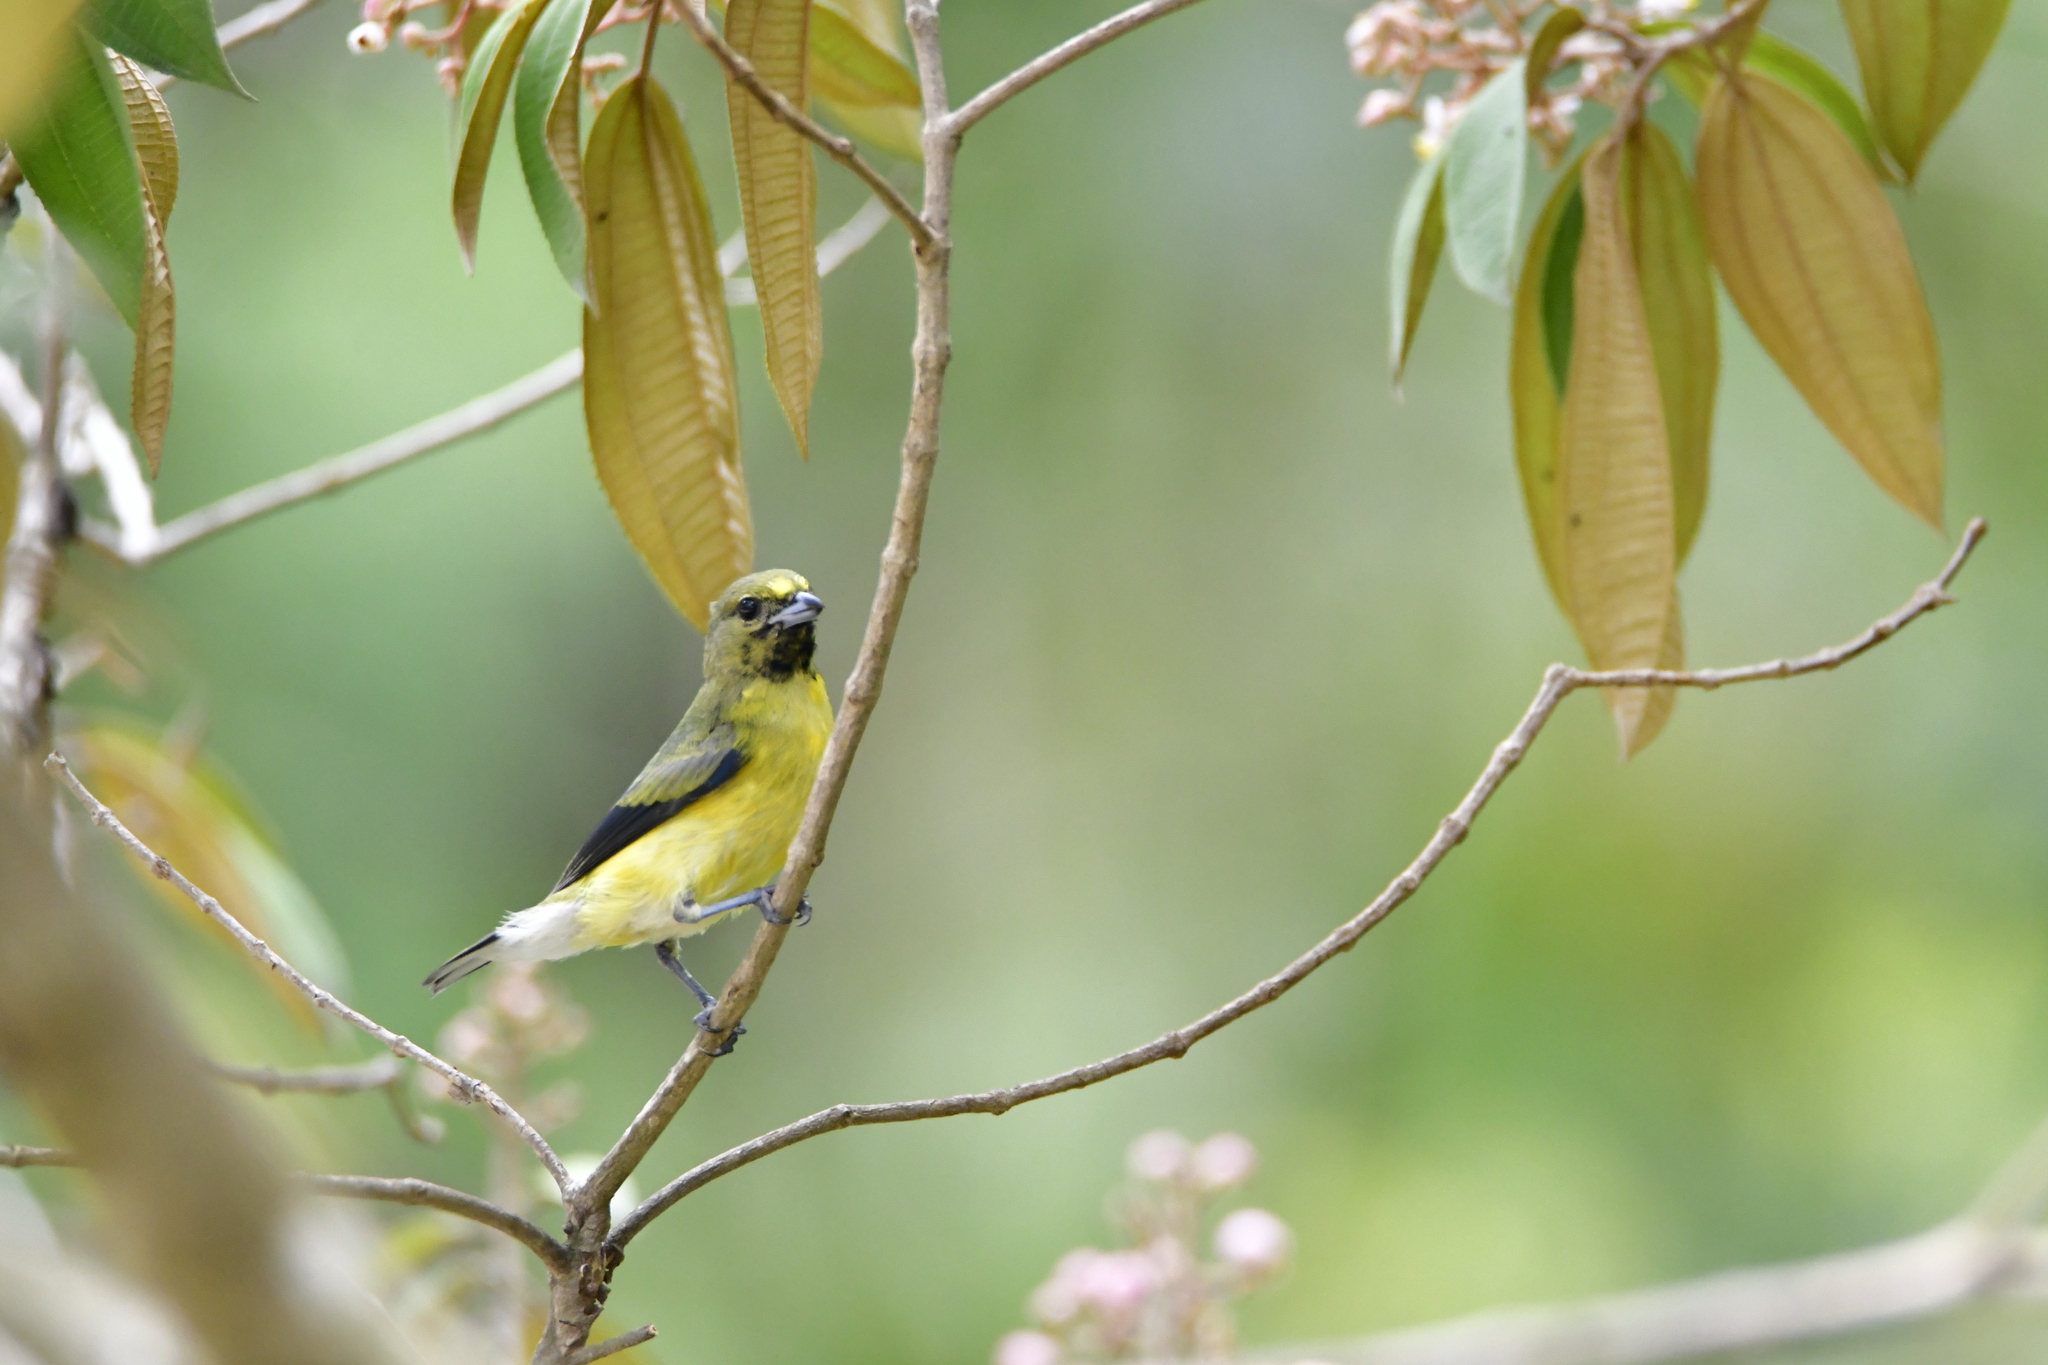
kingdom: Animalia
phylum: Chordata
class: Aves
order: Passeriformes
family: Fringillidae
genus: Euphonia
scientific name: Euphonia godmani
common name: West mexican euphonia
